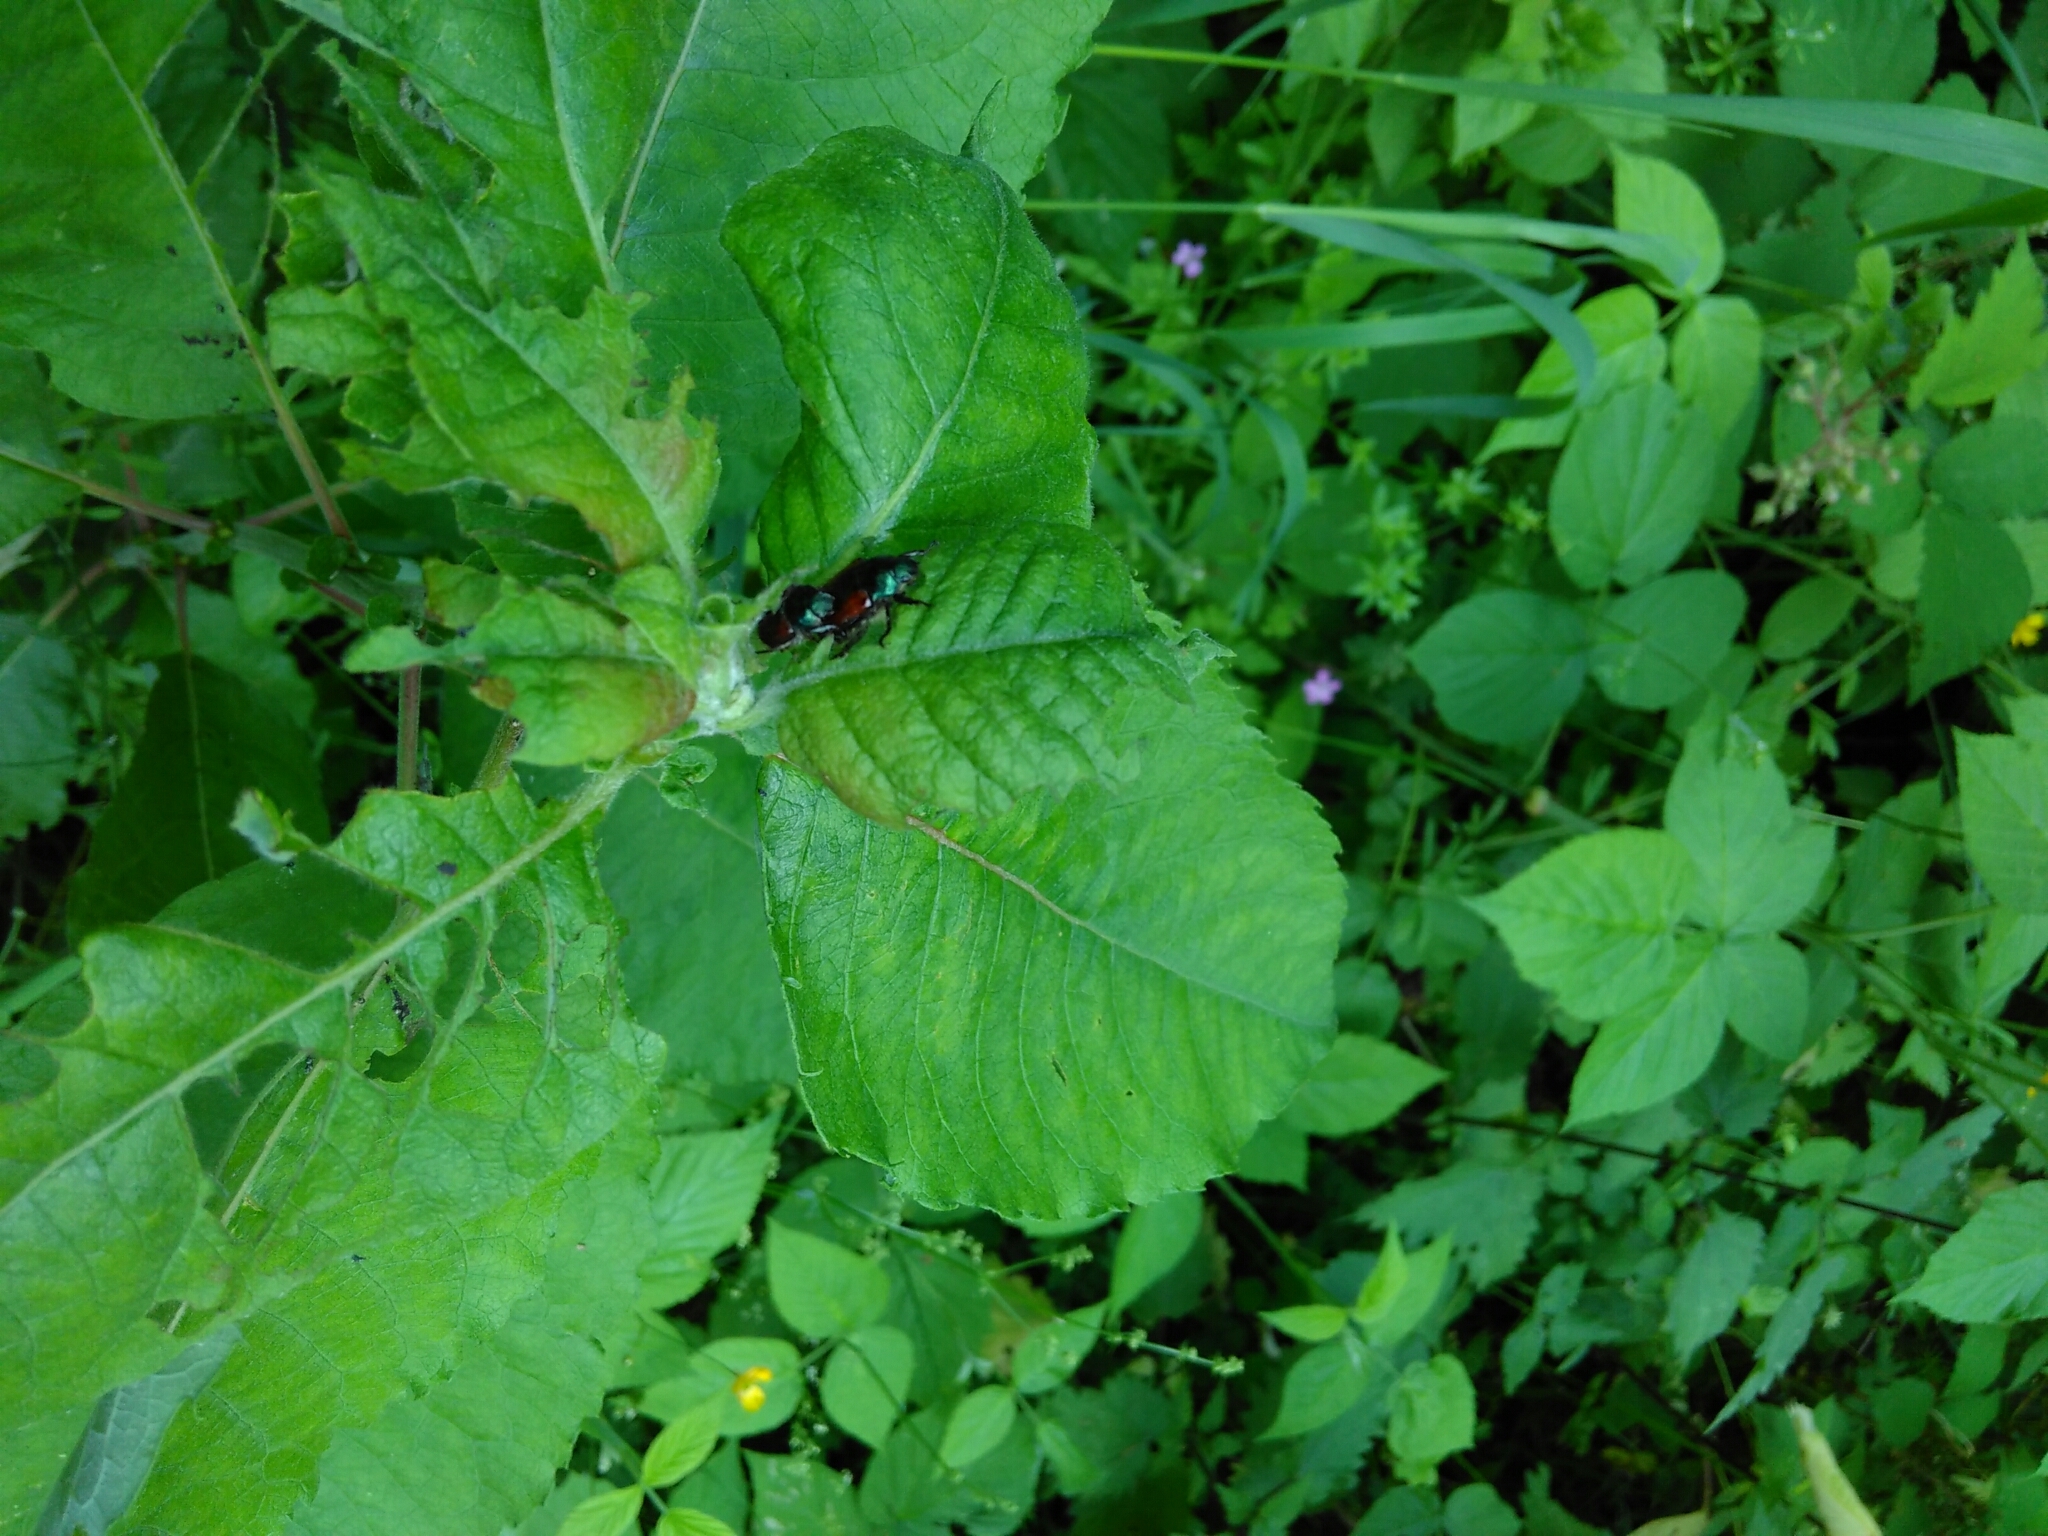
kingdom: Animalia
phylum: Arthropoda
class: Insecta
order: Coleoptera
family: Scarabaeidae
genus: Phyllopertha
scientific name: Phyllopertha horticola
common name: Garden chafer
